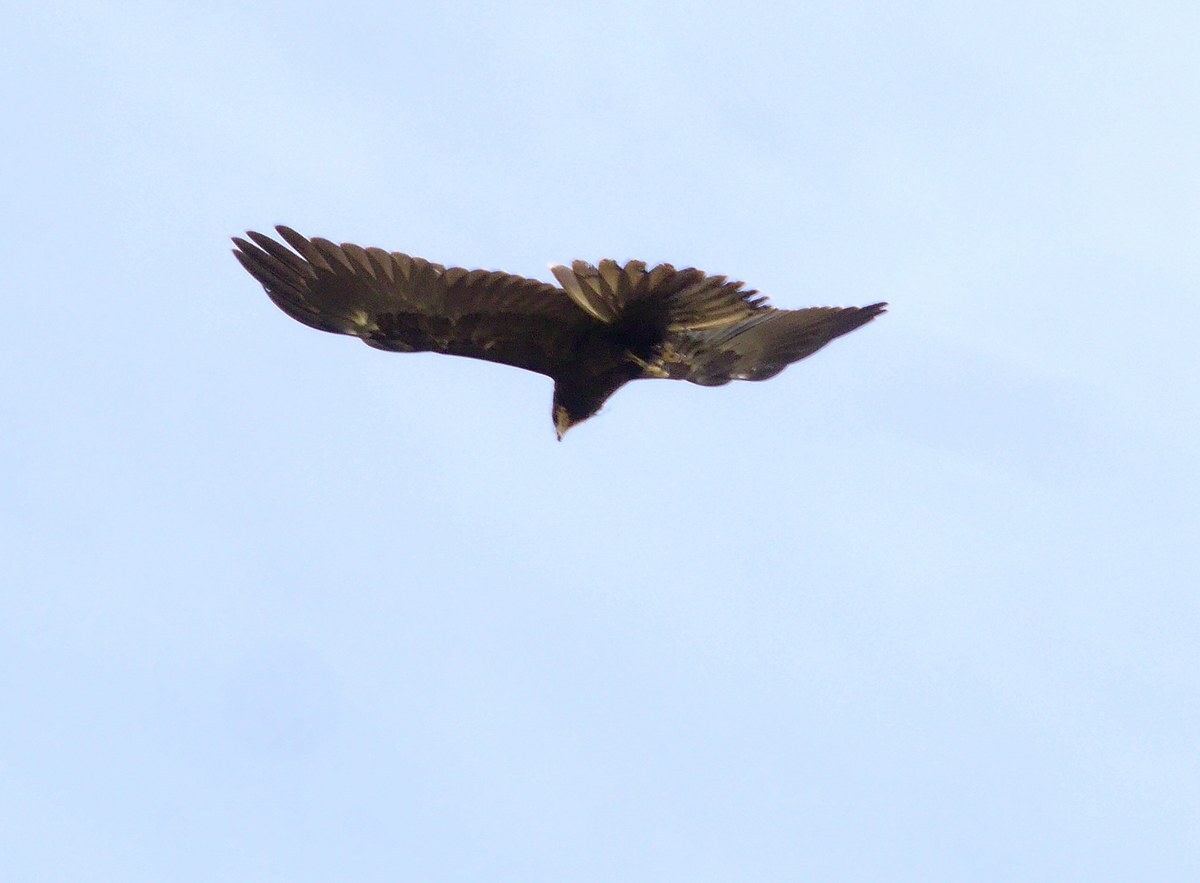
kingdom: Animalia
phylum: Chordata
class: Aves
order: Accipitriformes
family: Accipitridae
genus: Circus
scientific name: Circus aeruginosus
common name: Western marsh harrier
